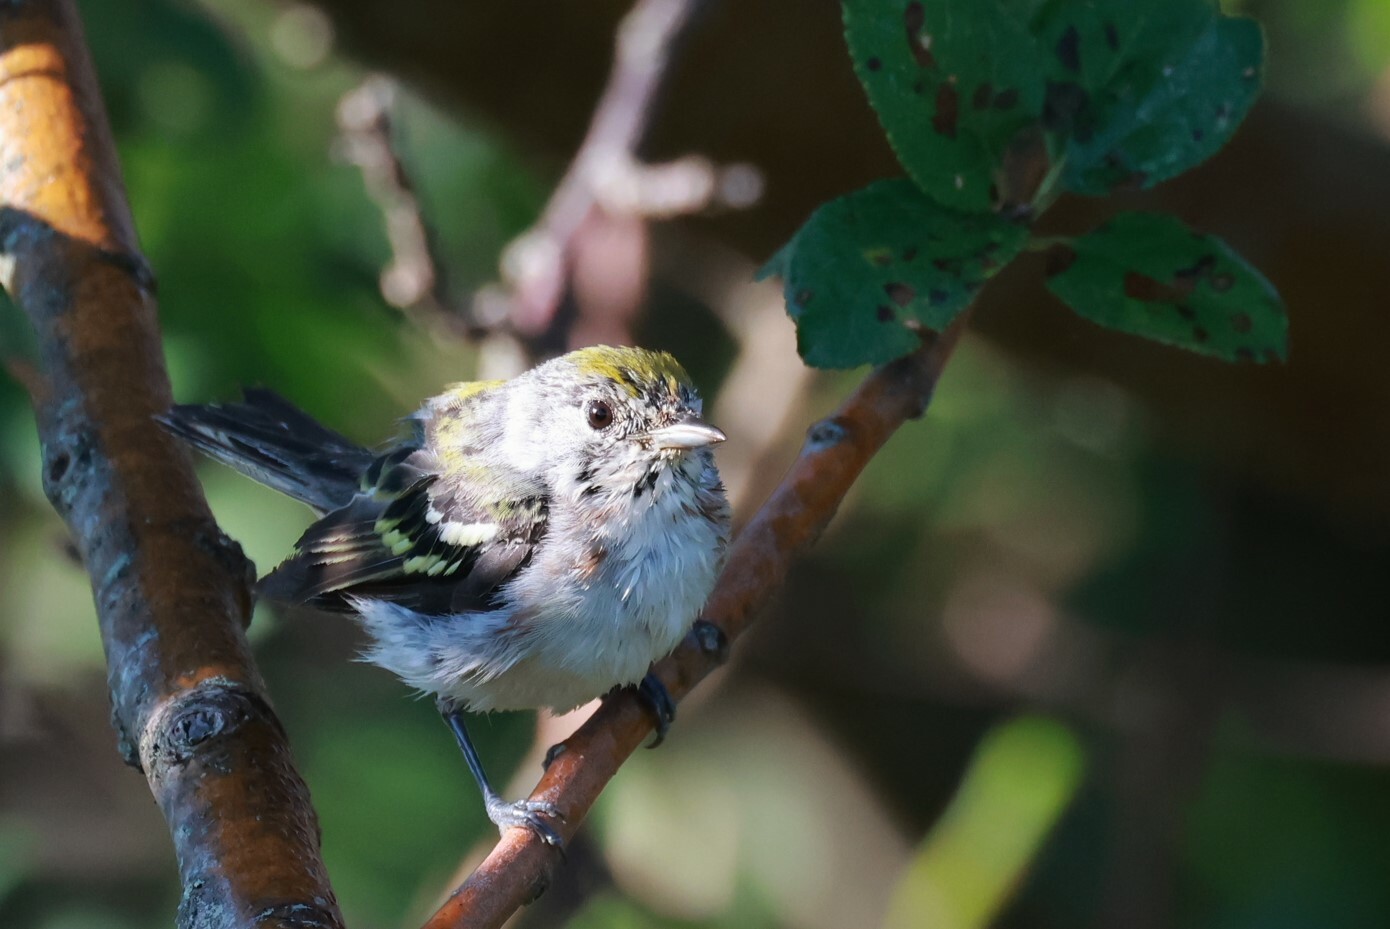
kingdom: Animalia
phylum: Chordata
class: Aves
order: Passeriformes
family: Parulidae
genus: Setophaga
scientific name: Setophaga pensylvanica
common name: Chestnut-sided warbler
